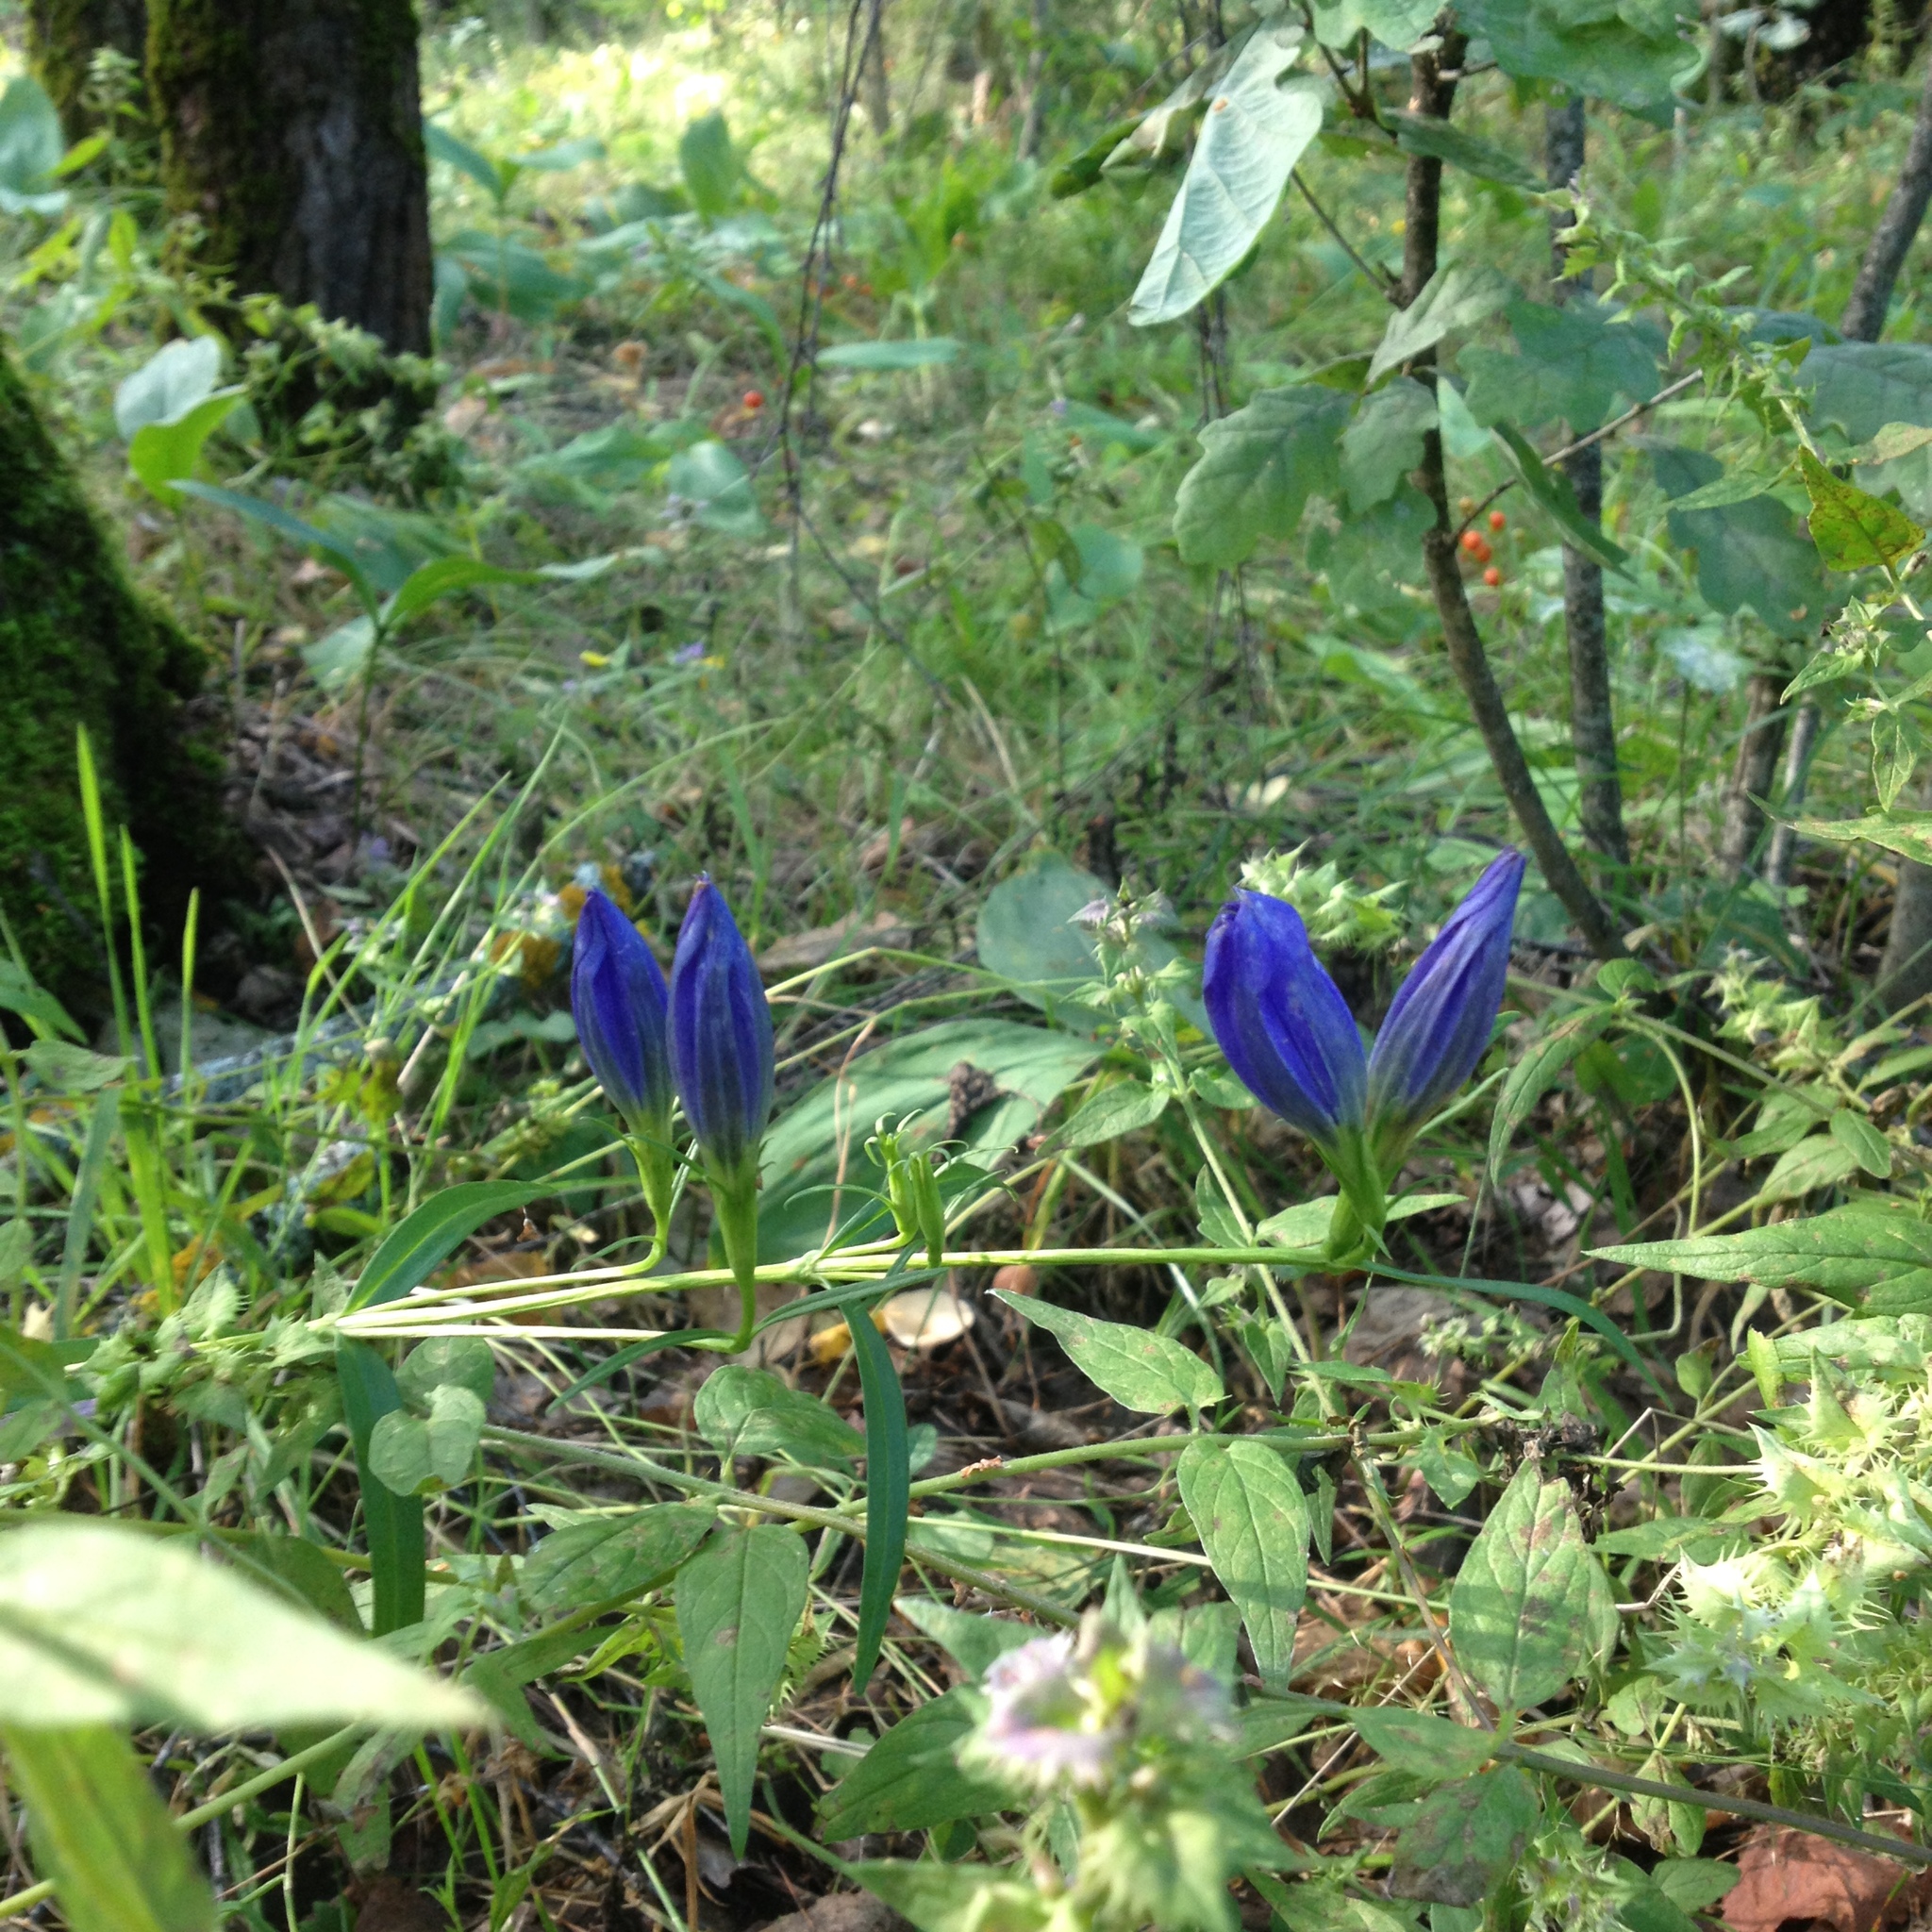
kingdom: Plantae
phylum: Tracheophyta
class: Magnoliopsida
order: Gentianales
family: Gentianaceae
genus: Gentiana
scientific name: Gentiana pneumonanthe
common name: Marsh gentian
